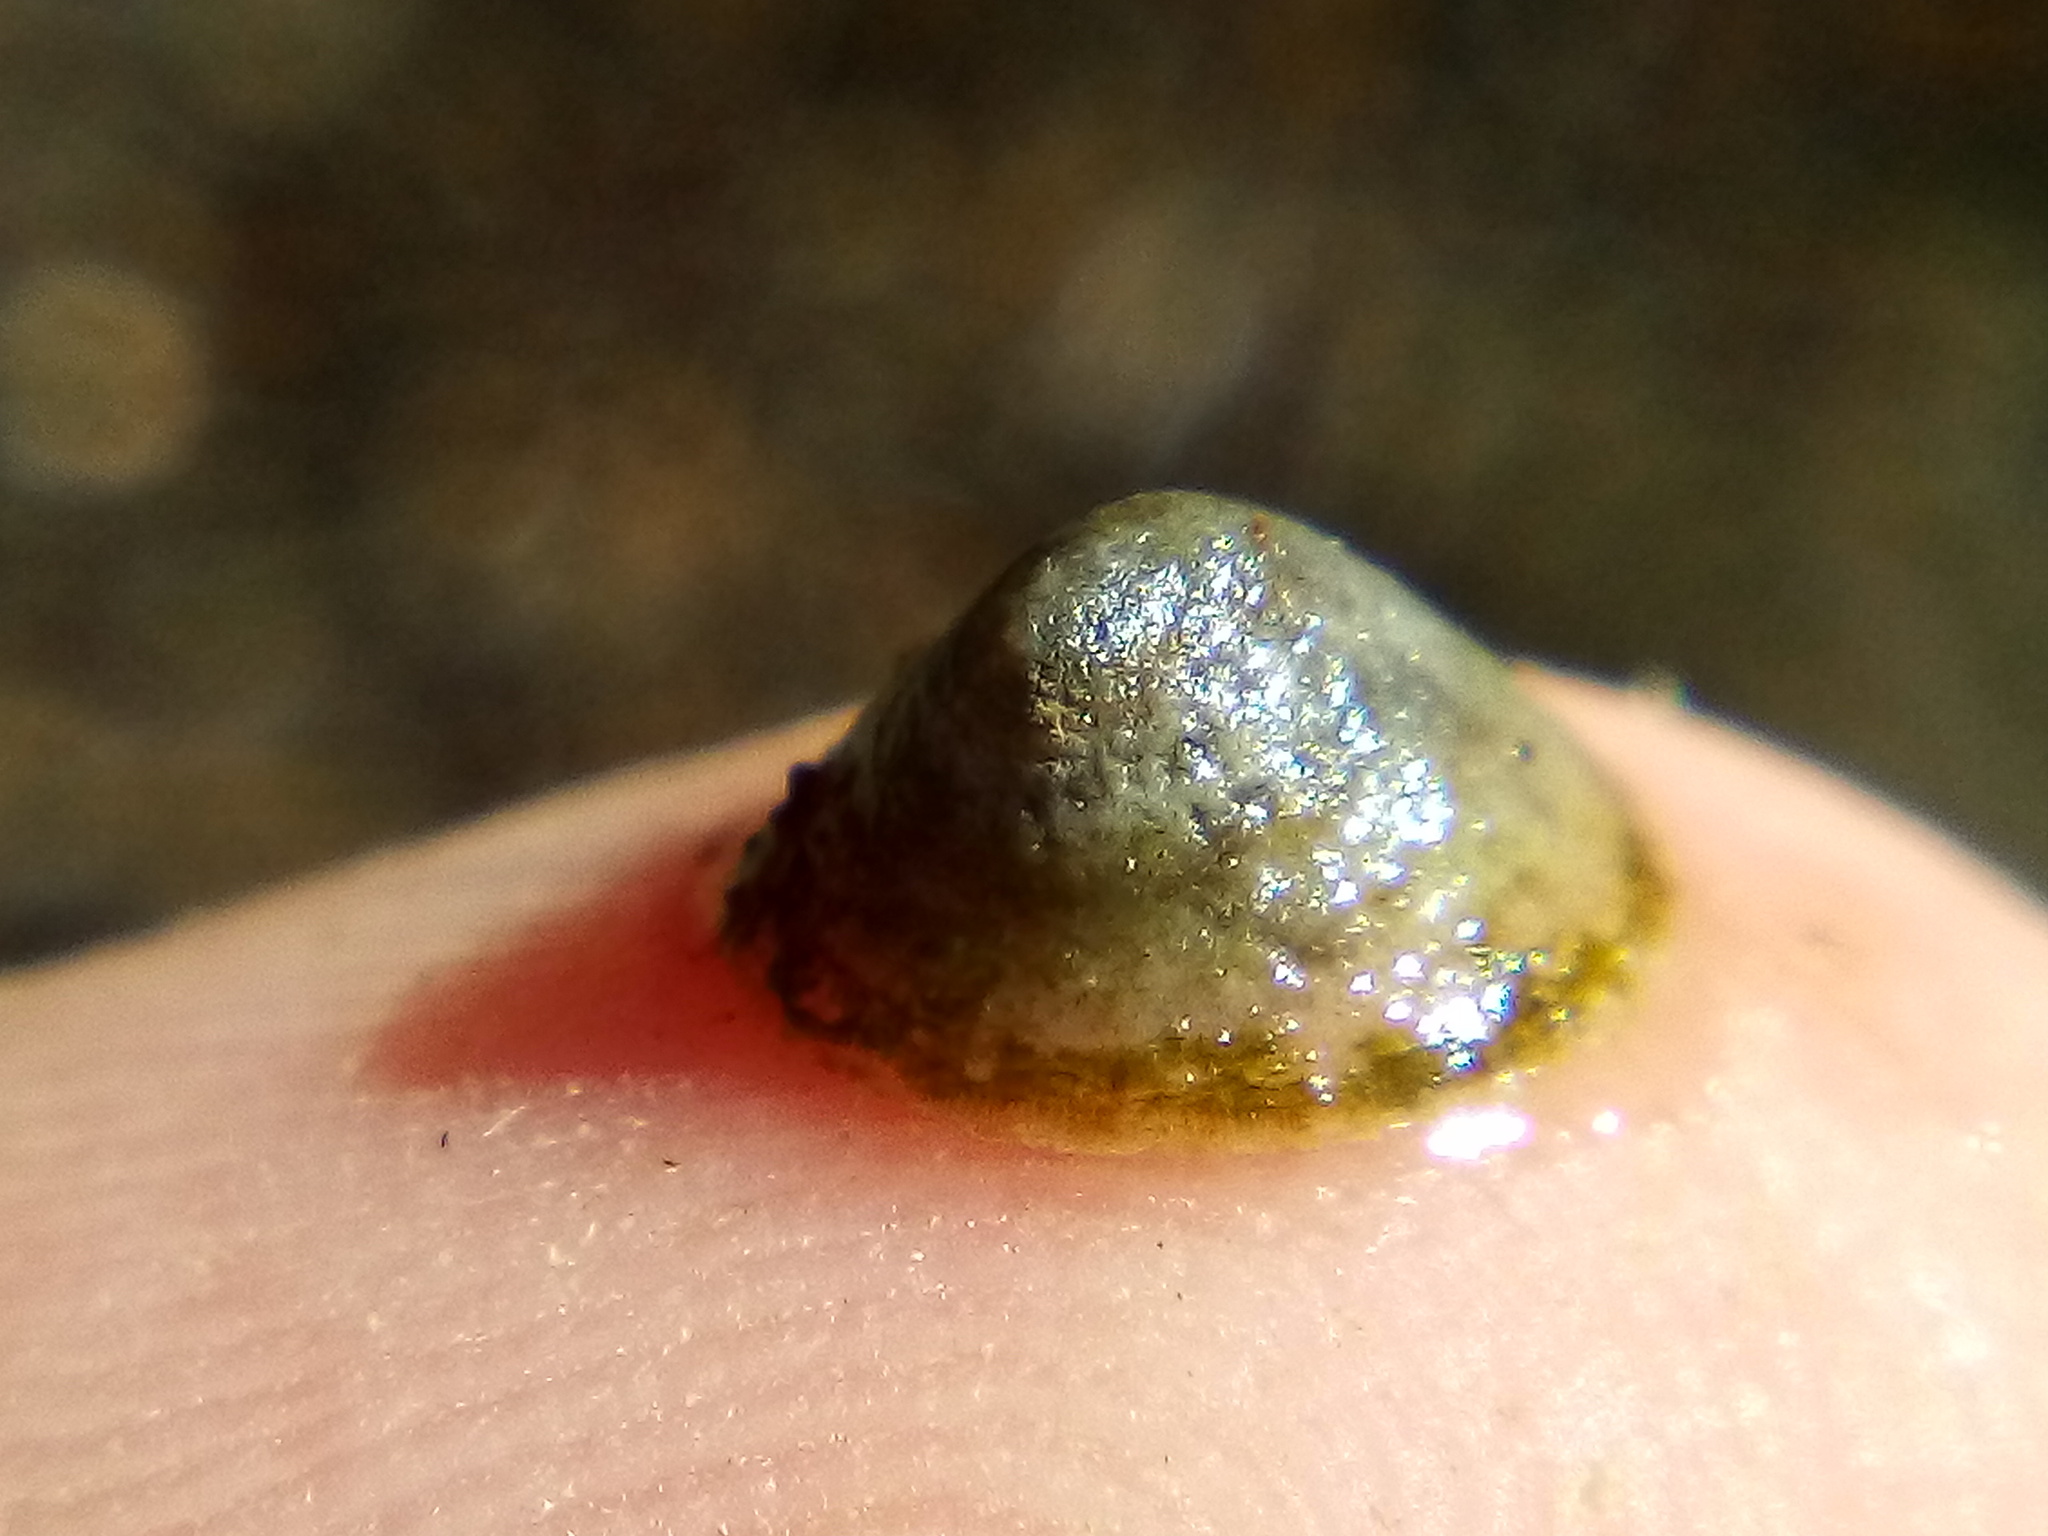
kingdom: Animalia
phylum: Mollusca
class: Gastropoda
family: Lottiidae
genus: Notoacmea
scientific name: Notoacmea potae
